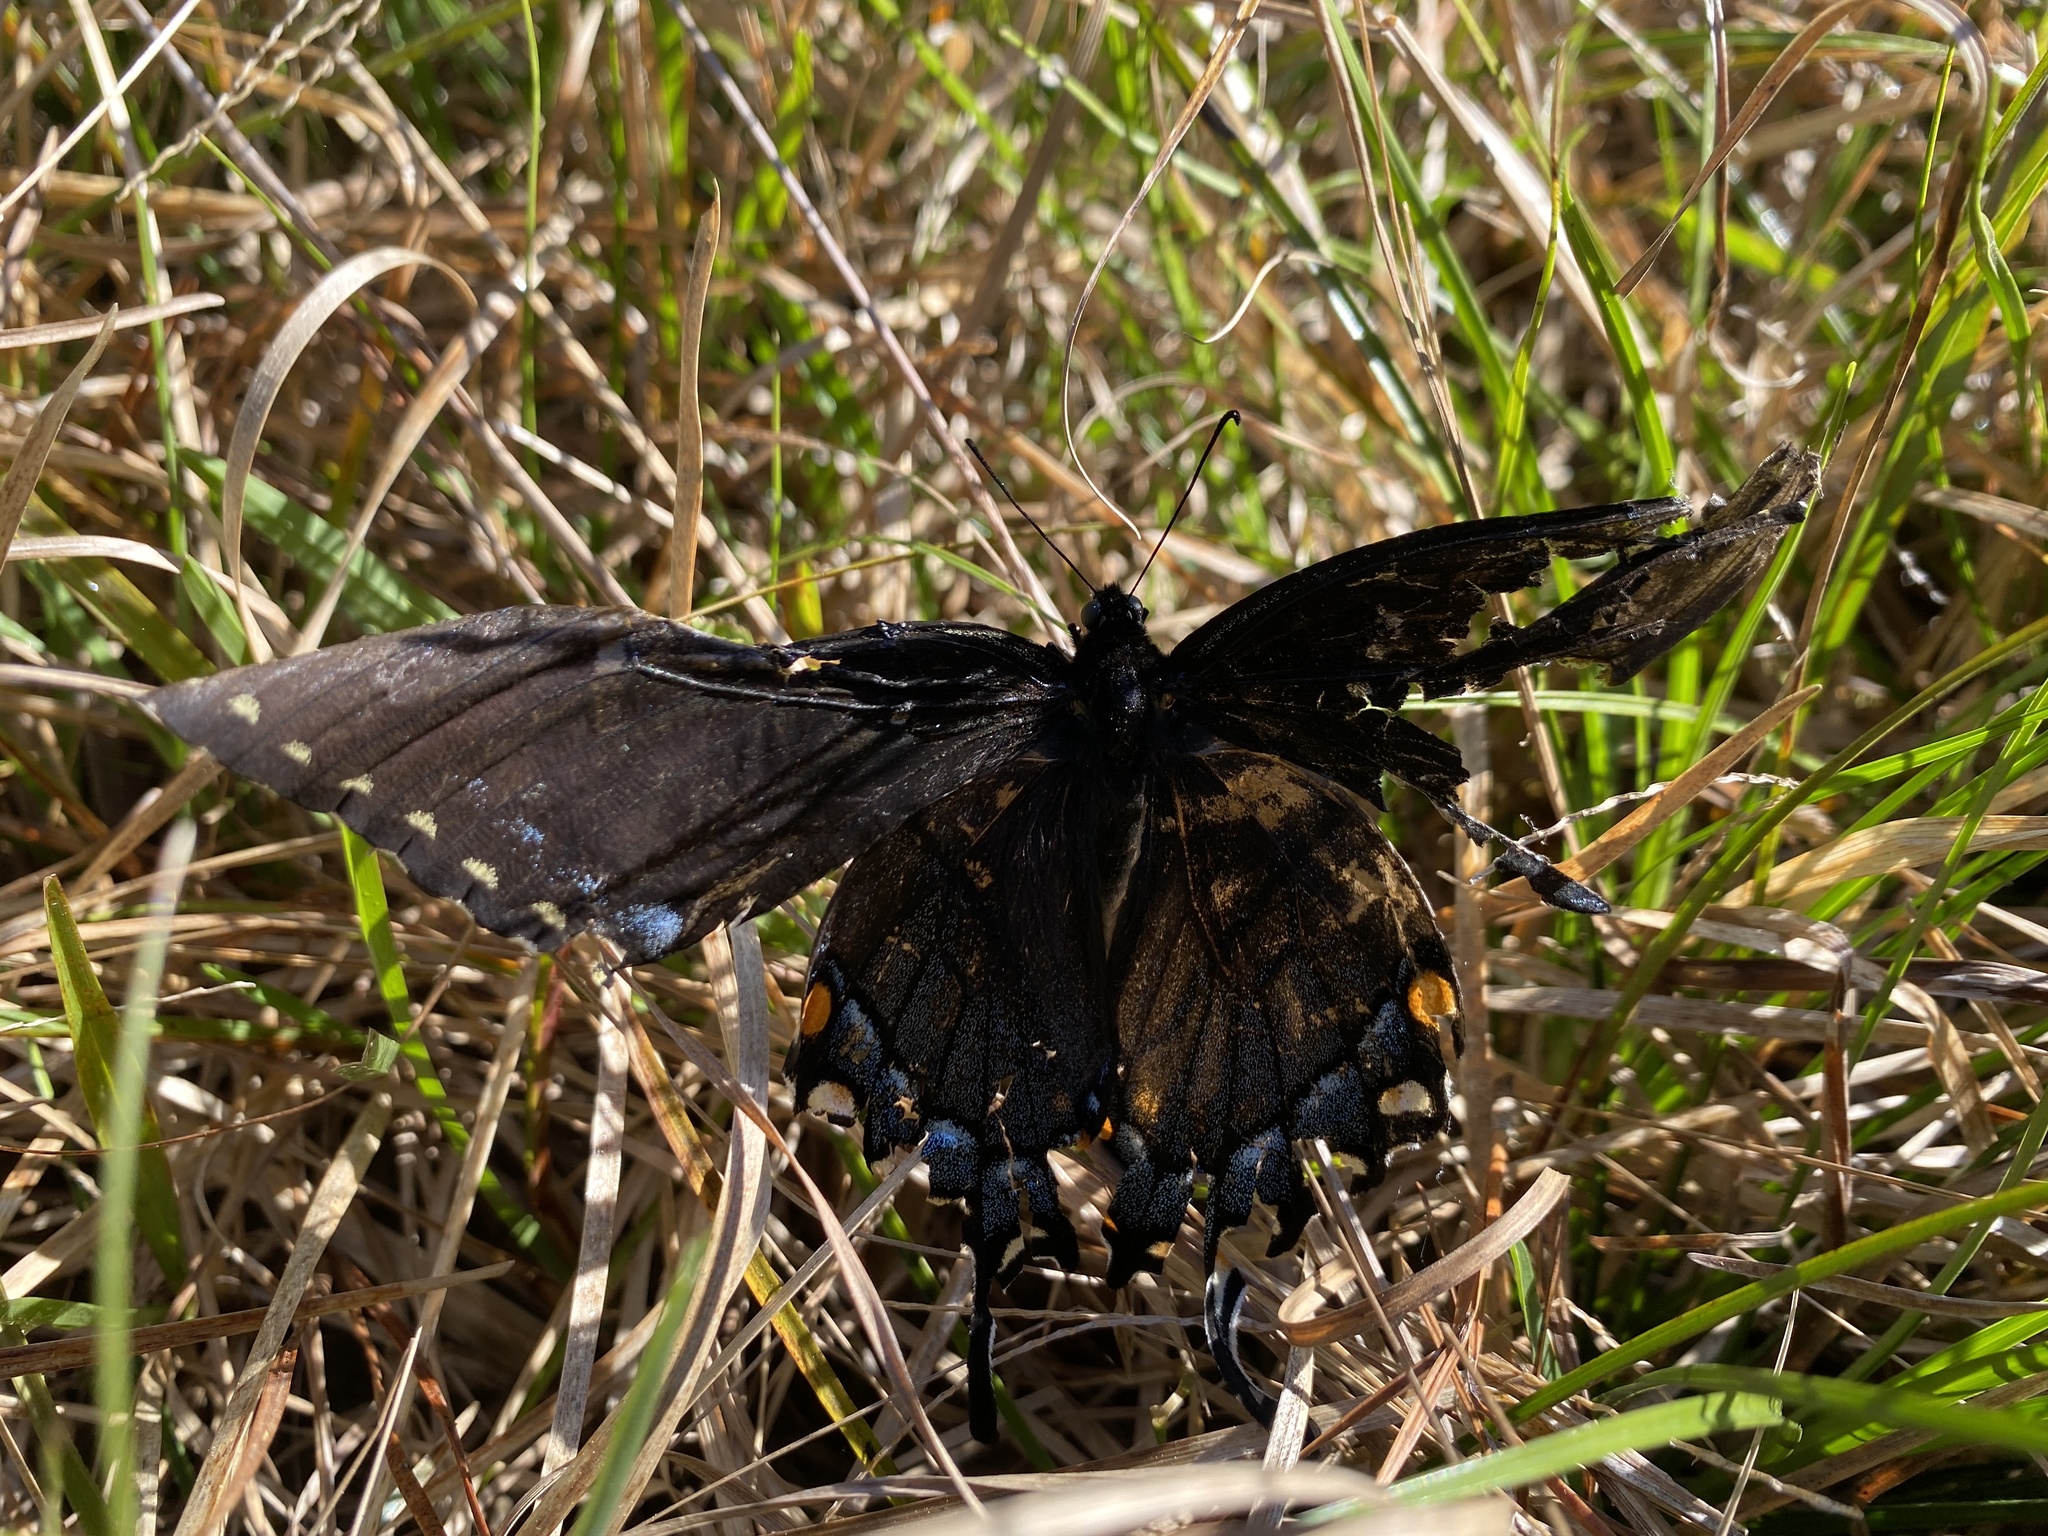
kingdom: Animalia
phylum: Arthropoda
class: Insecta
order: Lepidoptera
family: Papilionidae
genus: Papilio
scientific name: Papilio glaucus
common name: Tiger swallowtail
